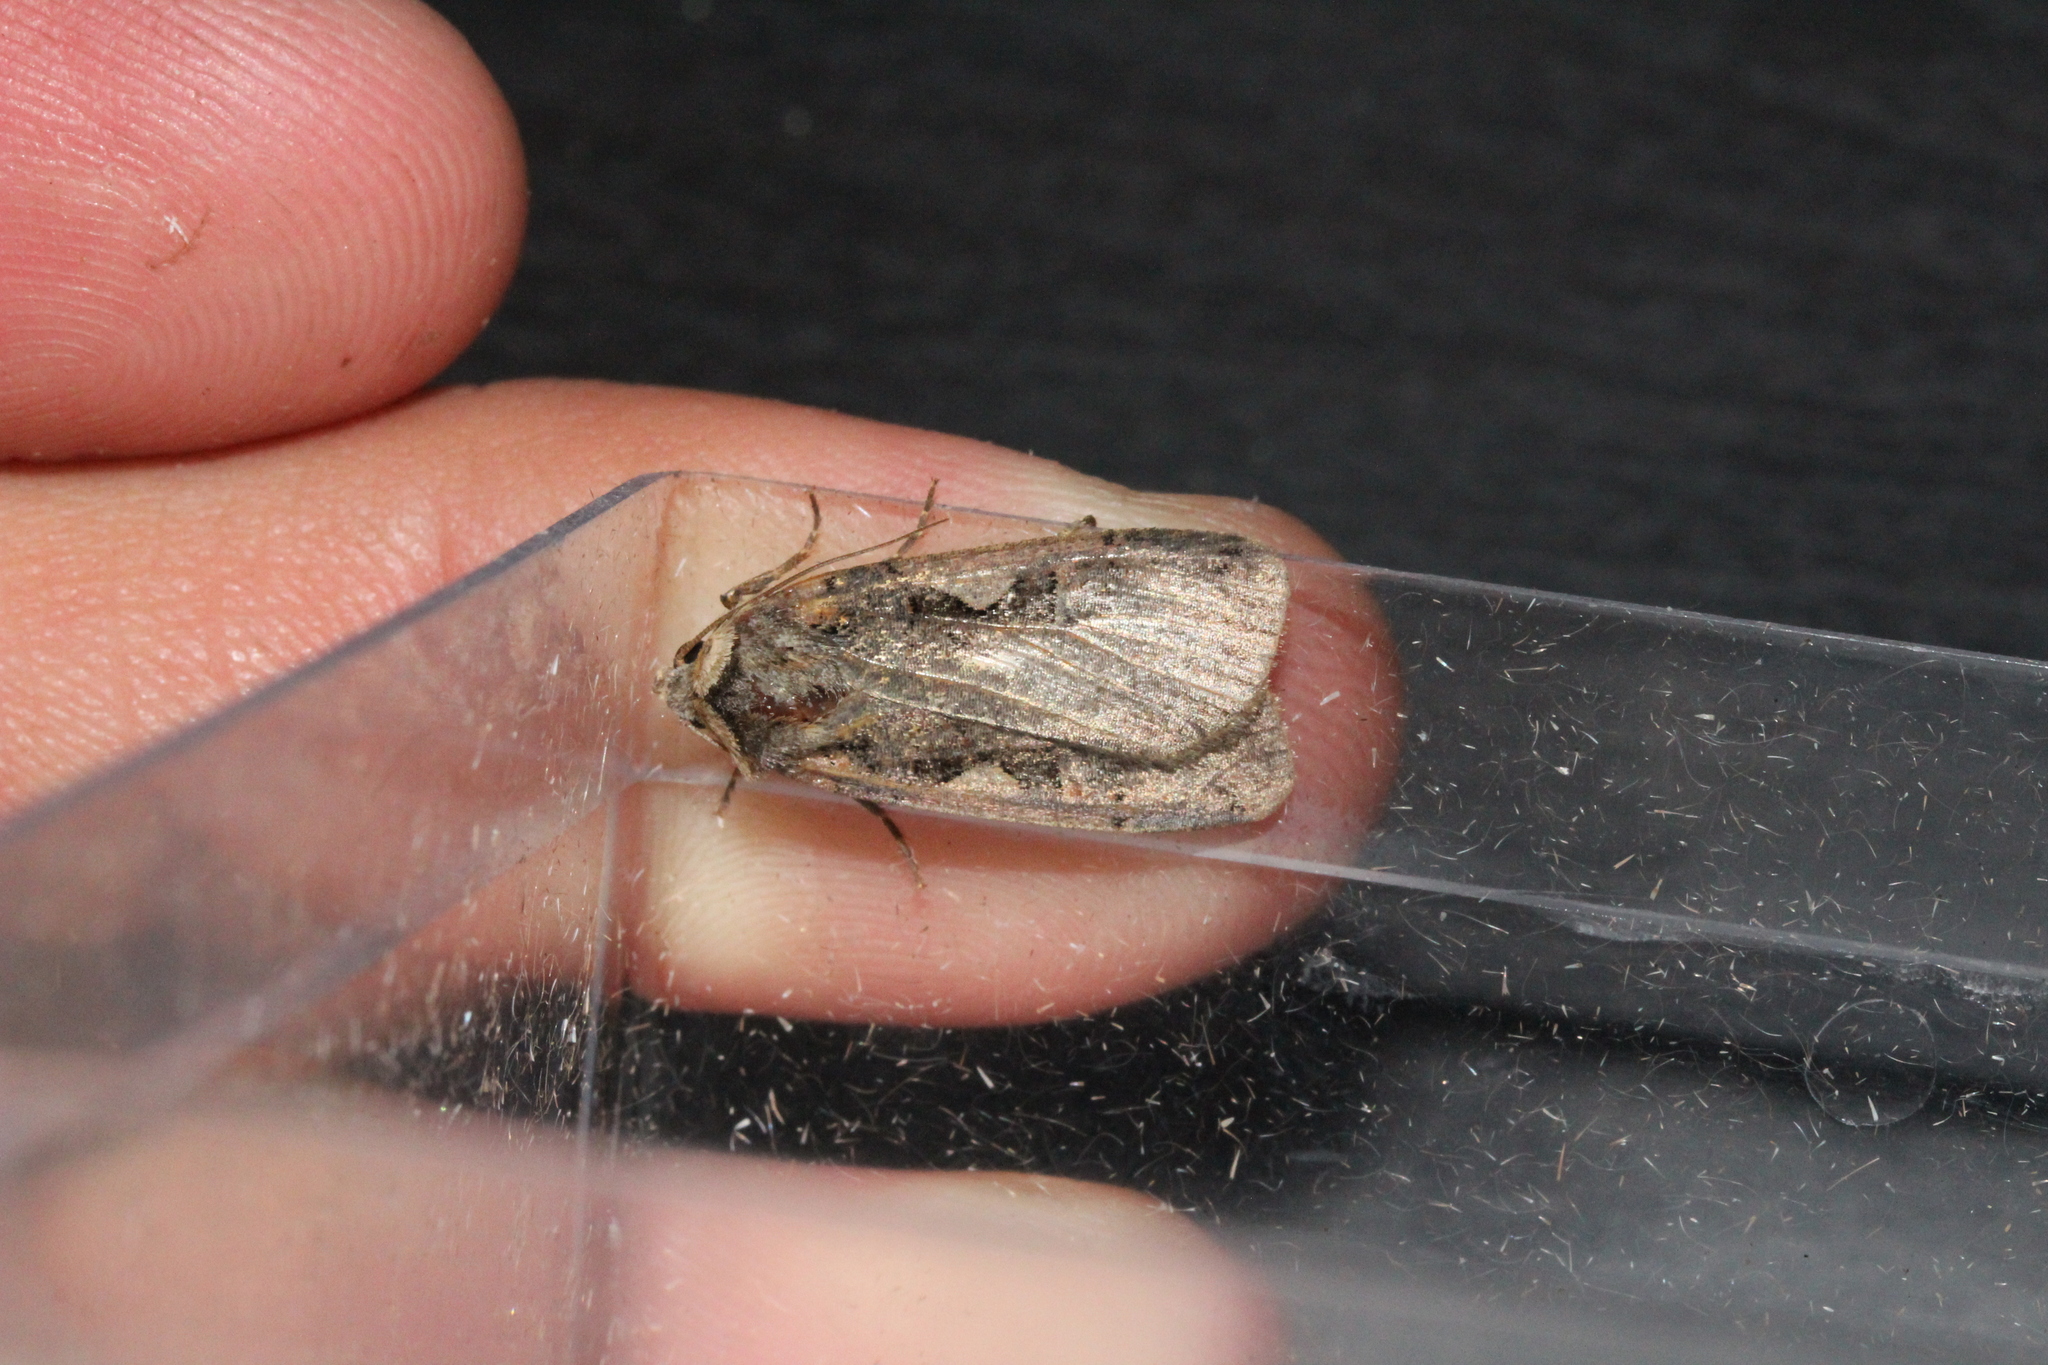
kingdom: Animalia
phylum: Arthropoda
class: Insecta
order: Lepidoptera
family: Noctuidae
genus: Xestia
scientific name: Xestia c-nigrum
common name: Setaceous hebrew character
